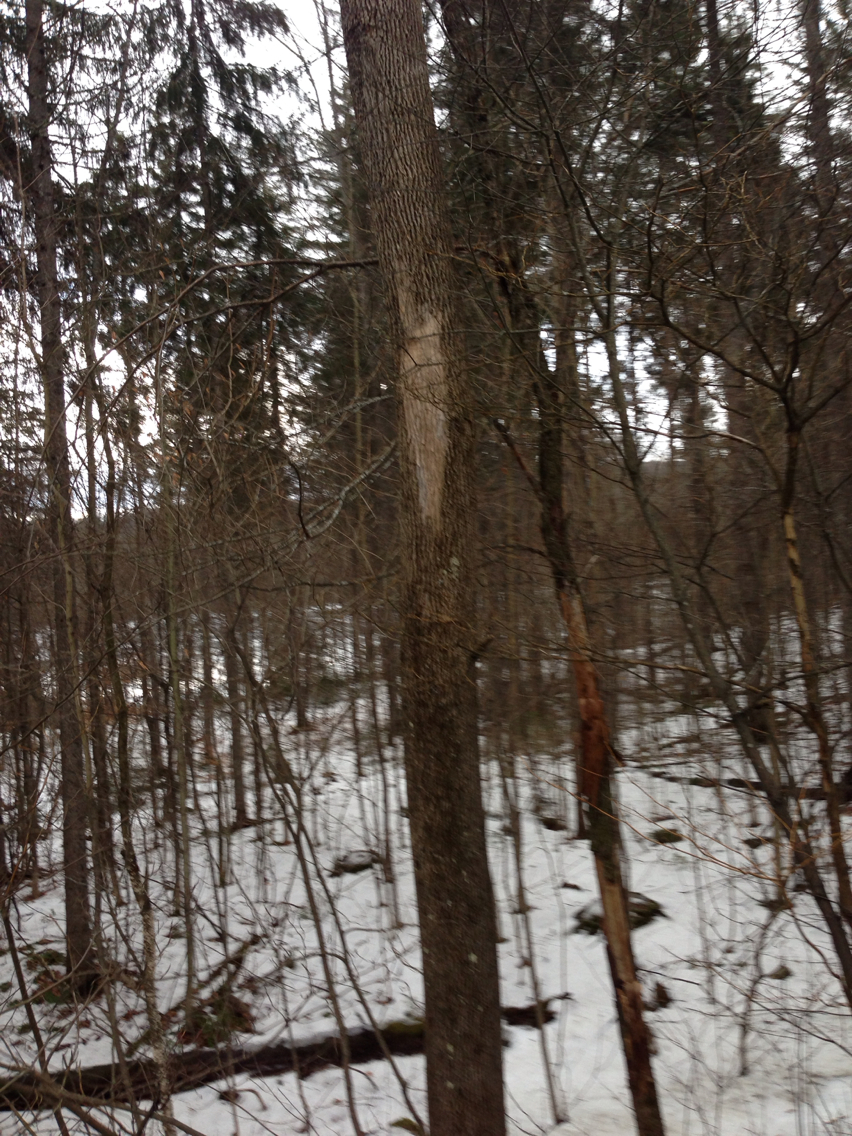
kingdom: Plantae
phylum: Tracheophyta
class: Magnoliopsida
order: Lamiales
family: Oleaceae
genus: Fraxinus
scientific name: Fraxinus americana
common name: White ash
